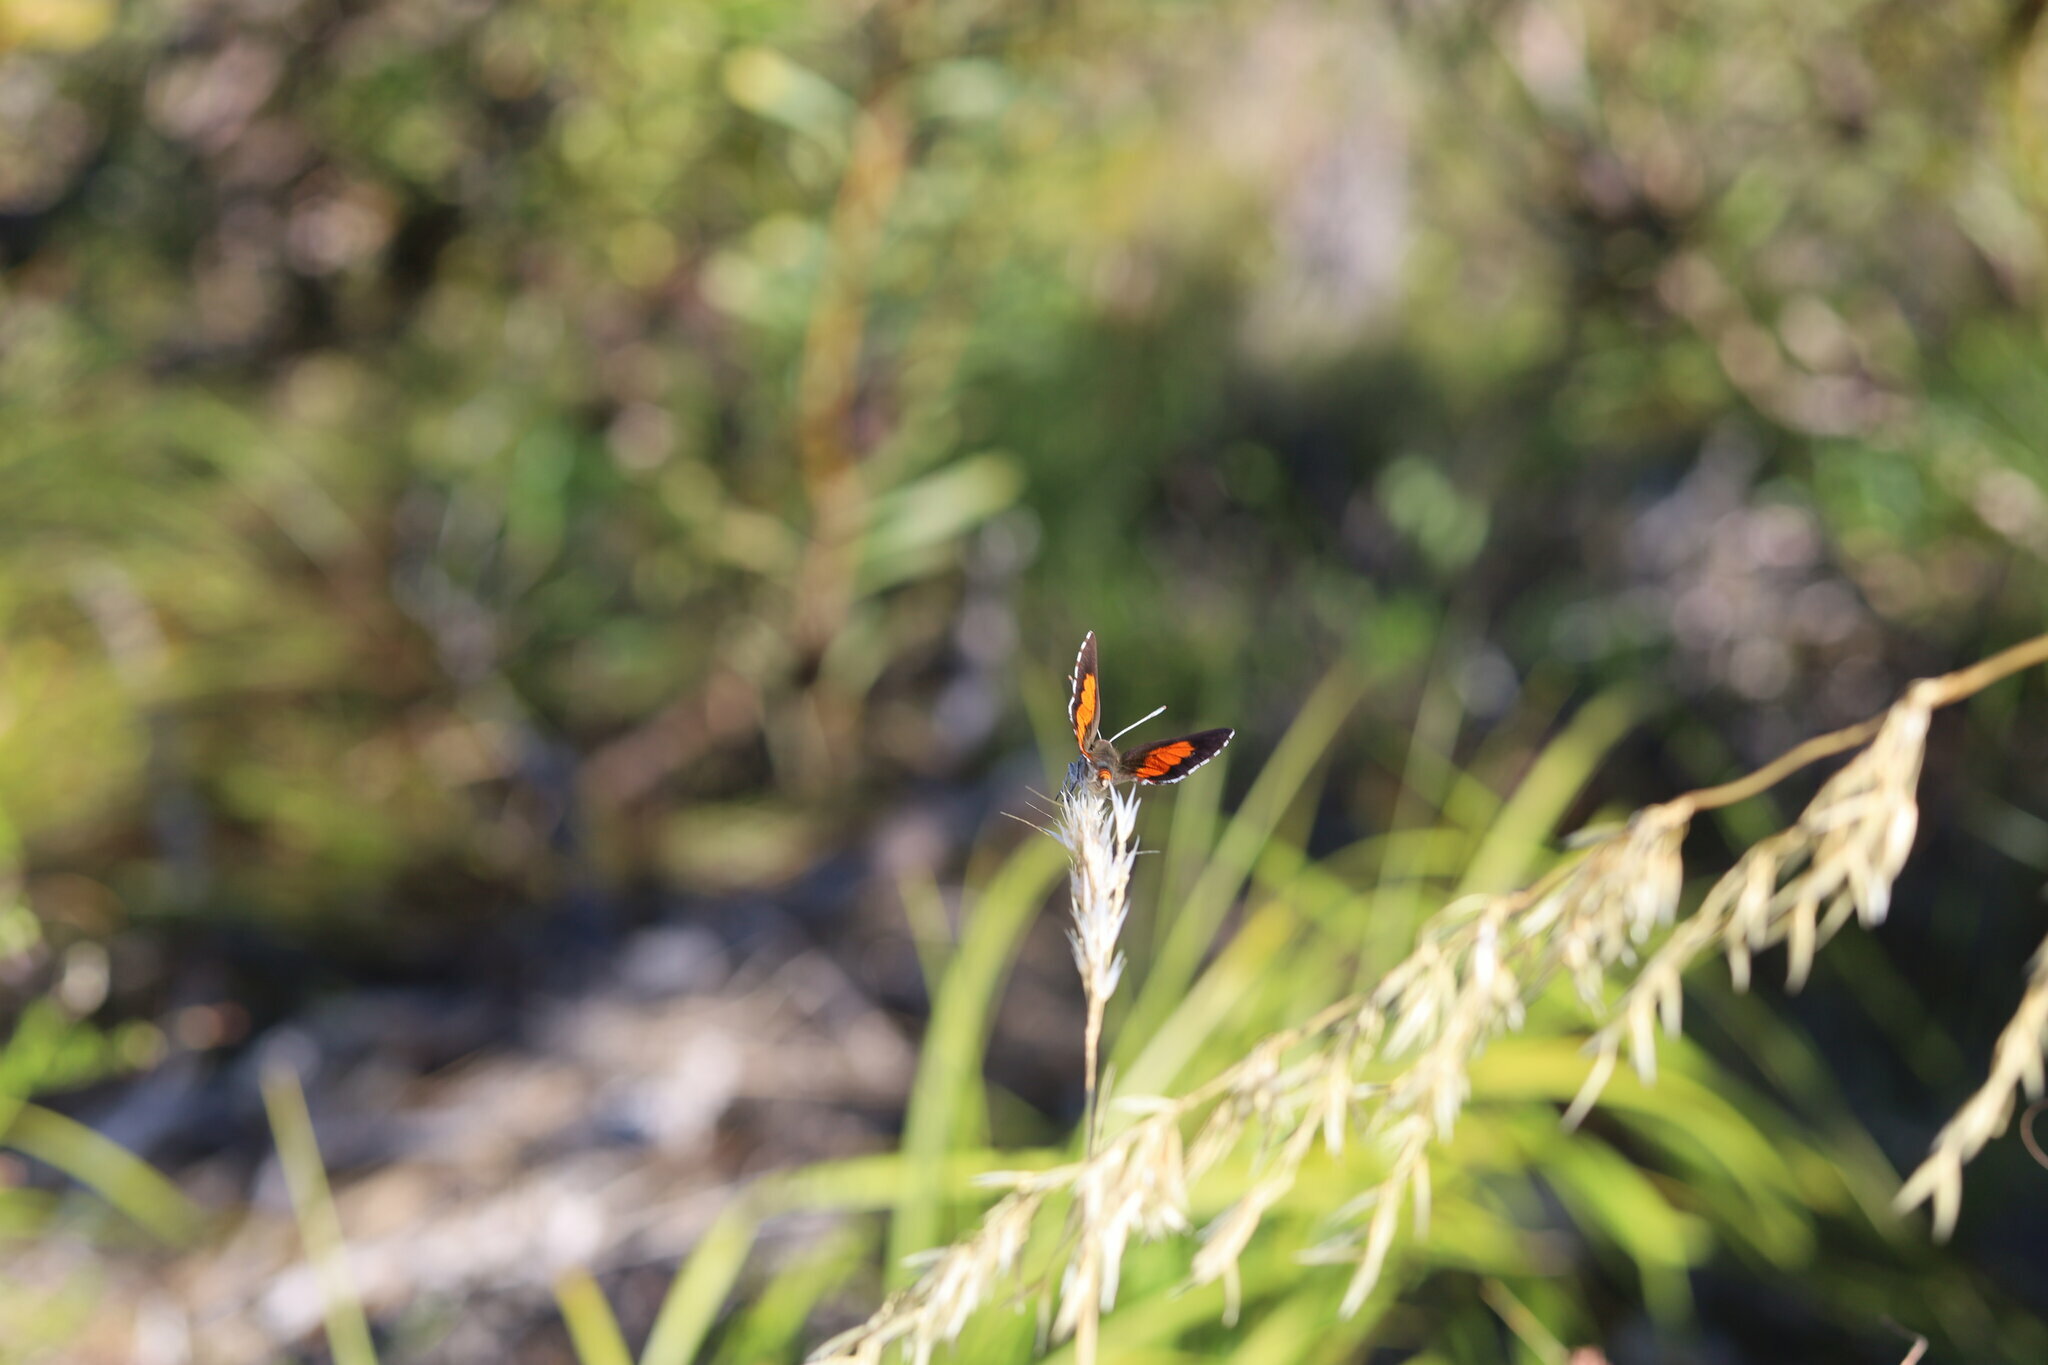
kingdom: Animalia
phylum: Arthropoda
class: Insecta
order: Lepidoptera
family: Lycaenidae
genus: Capys
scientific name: Capys alpheus
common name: Orange-banded protea butterfly
